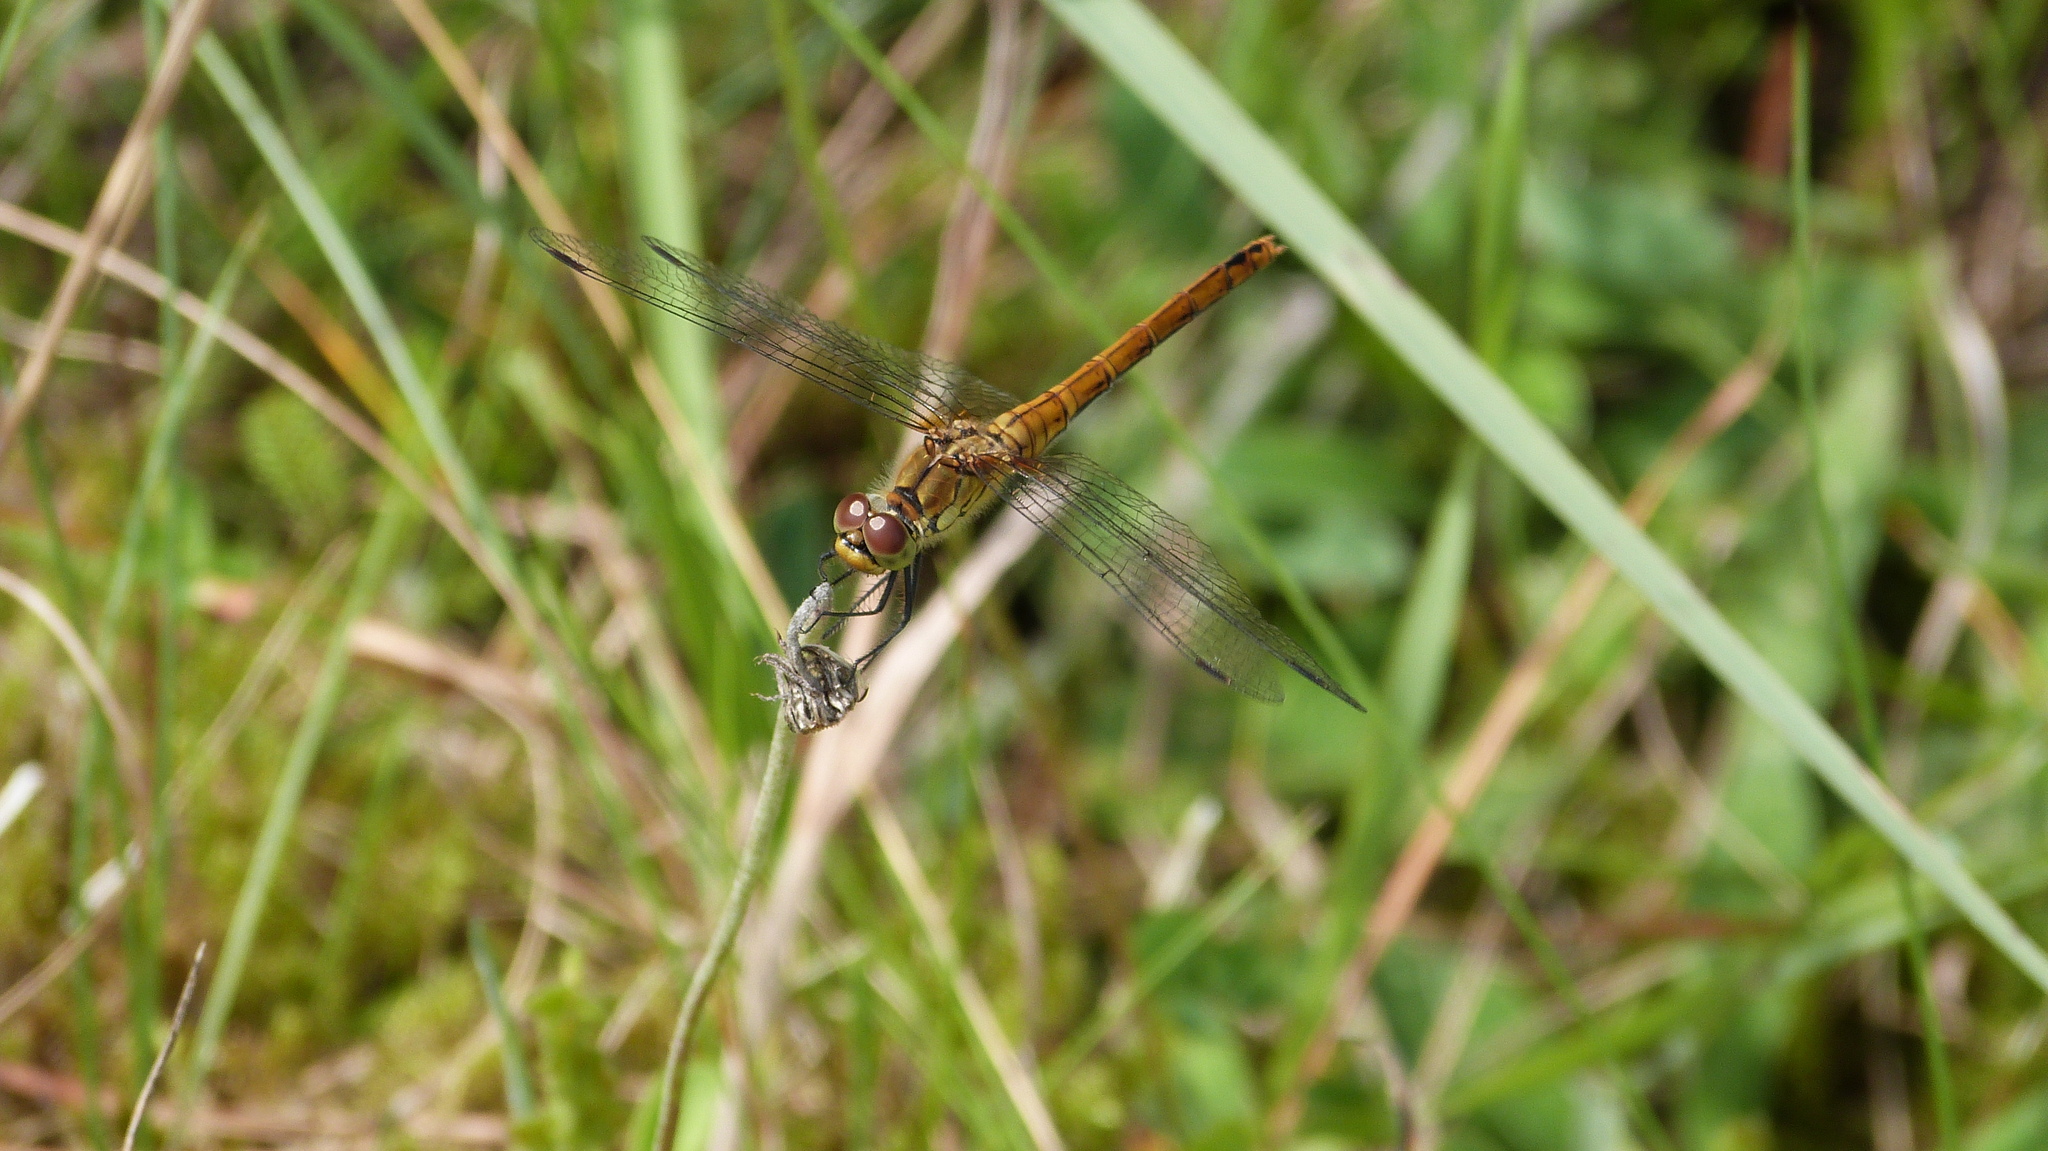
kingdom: Animalia
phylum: Arthropoda
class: Insecta
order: Odonata
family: Libellulidae
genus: Sympetrum
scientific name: Sympetrum sanguineum
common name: Ruddy darter
